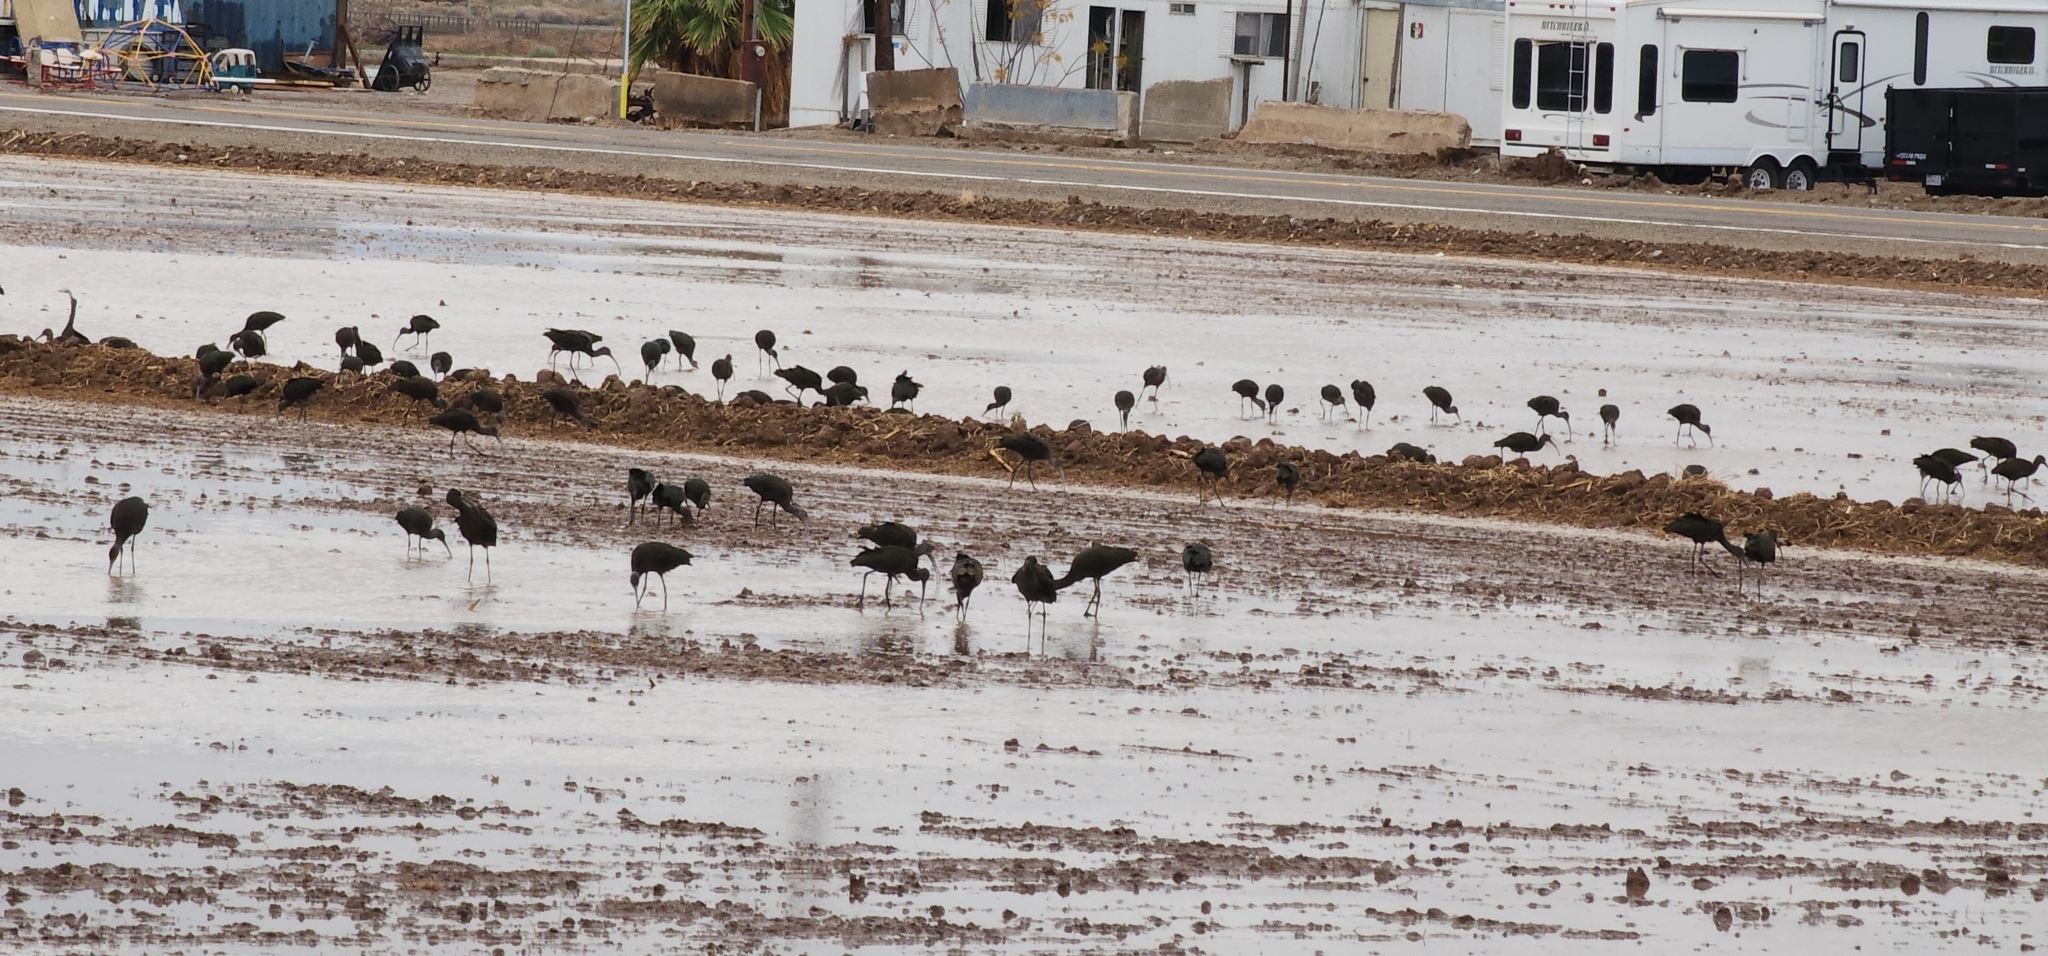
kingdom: Animalia
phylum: Chordata
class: Aves
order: Pelecaniformes
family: Threskiornithidae
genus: Plegadis
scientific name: Plegadis chihi
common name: White-faced ibis
